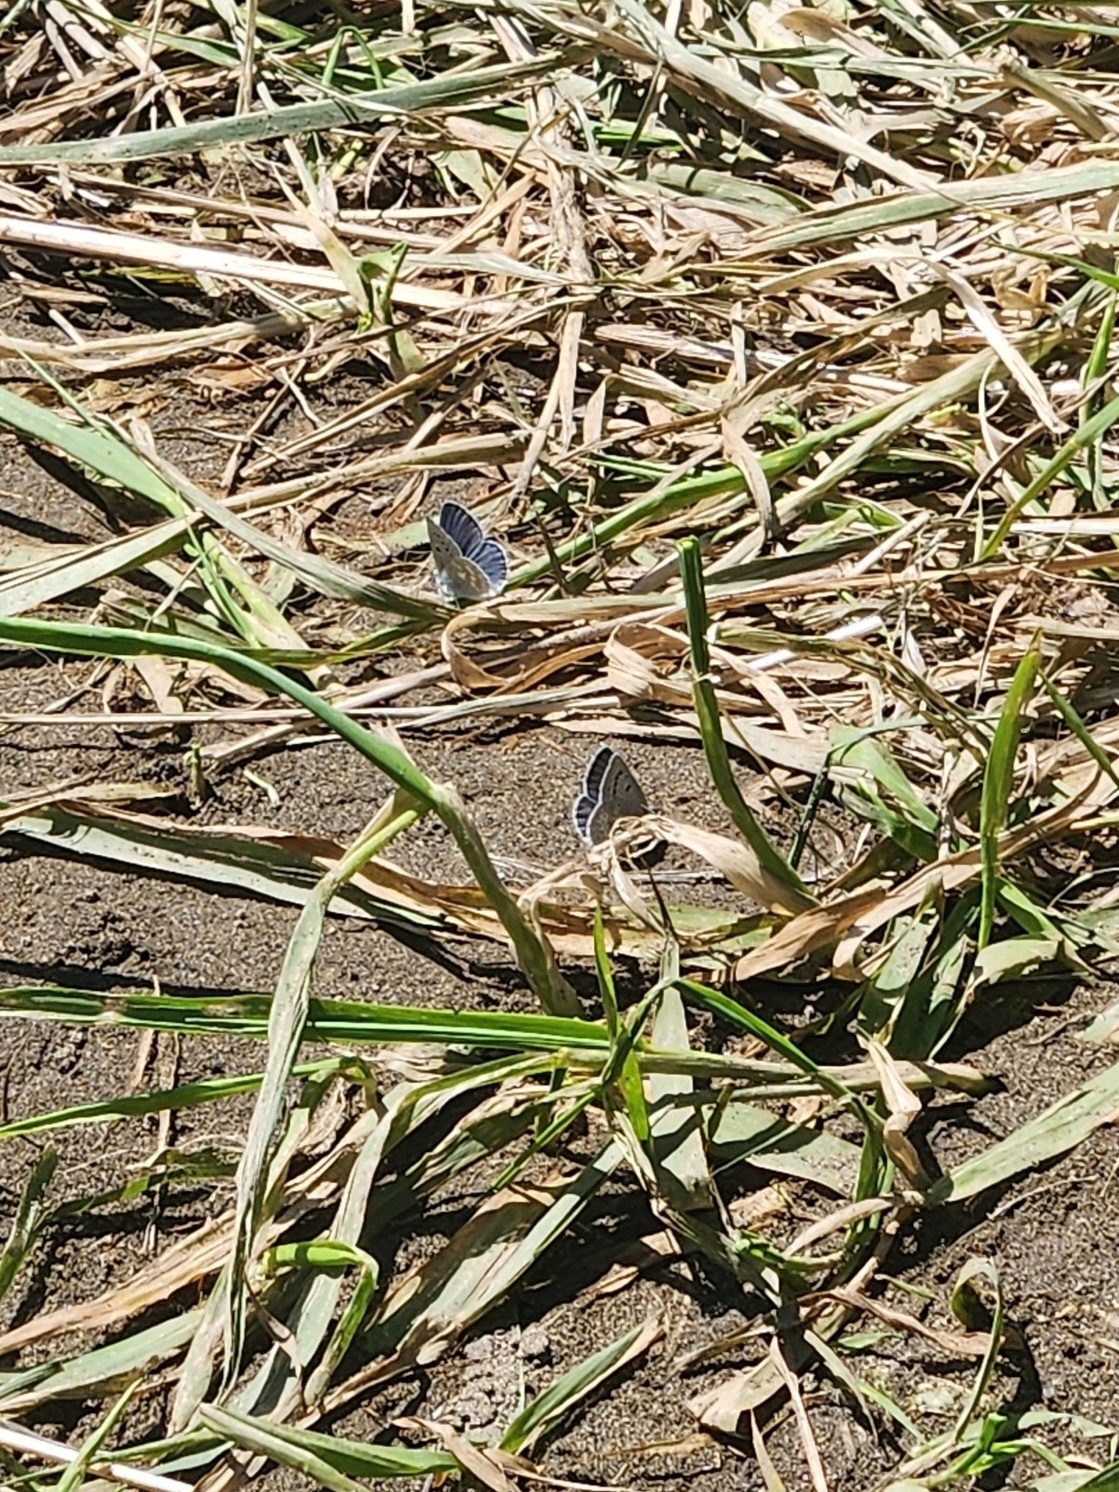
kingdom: Animalia
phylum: Arthropoda
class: Insecta
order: Lepidoptera
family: Lycaenidae
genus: Icaricia
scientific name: Icaricia icarioides
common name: Boisduval's blue
